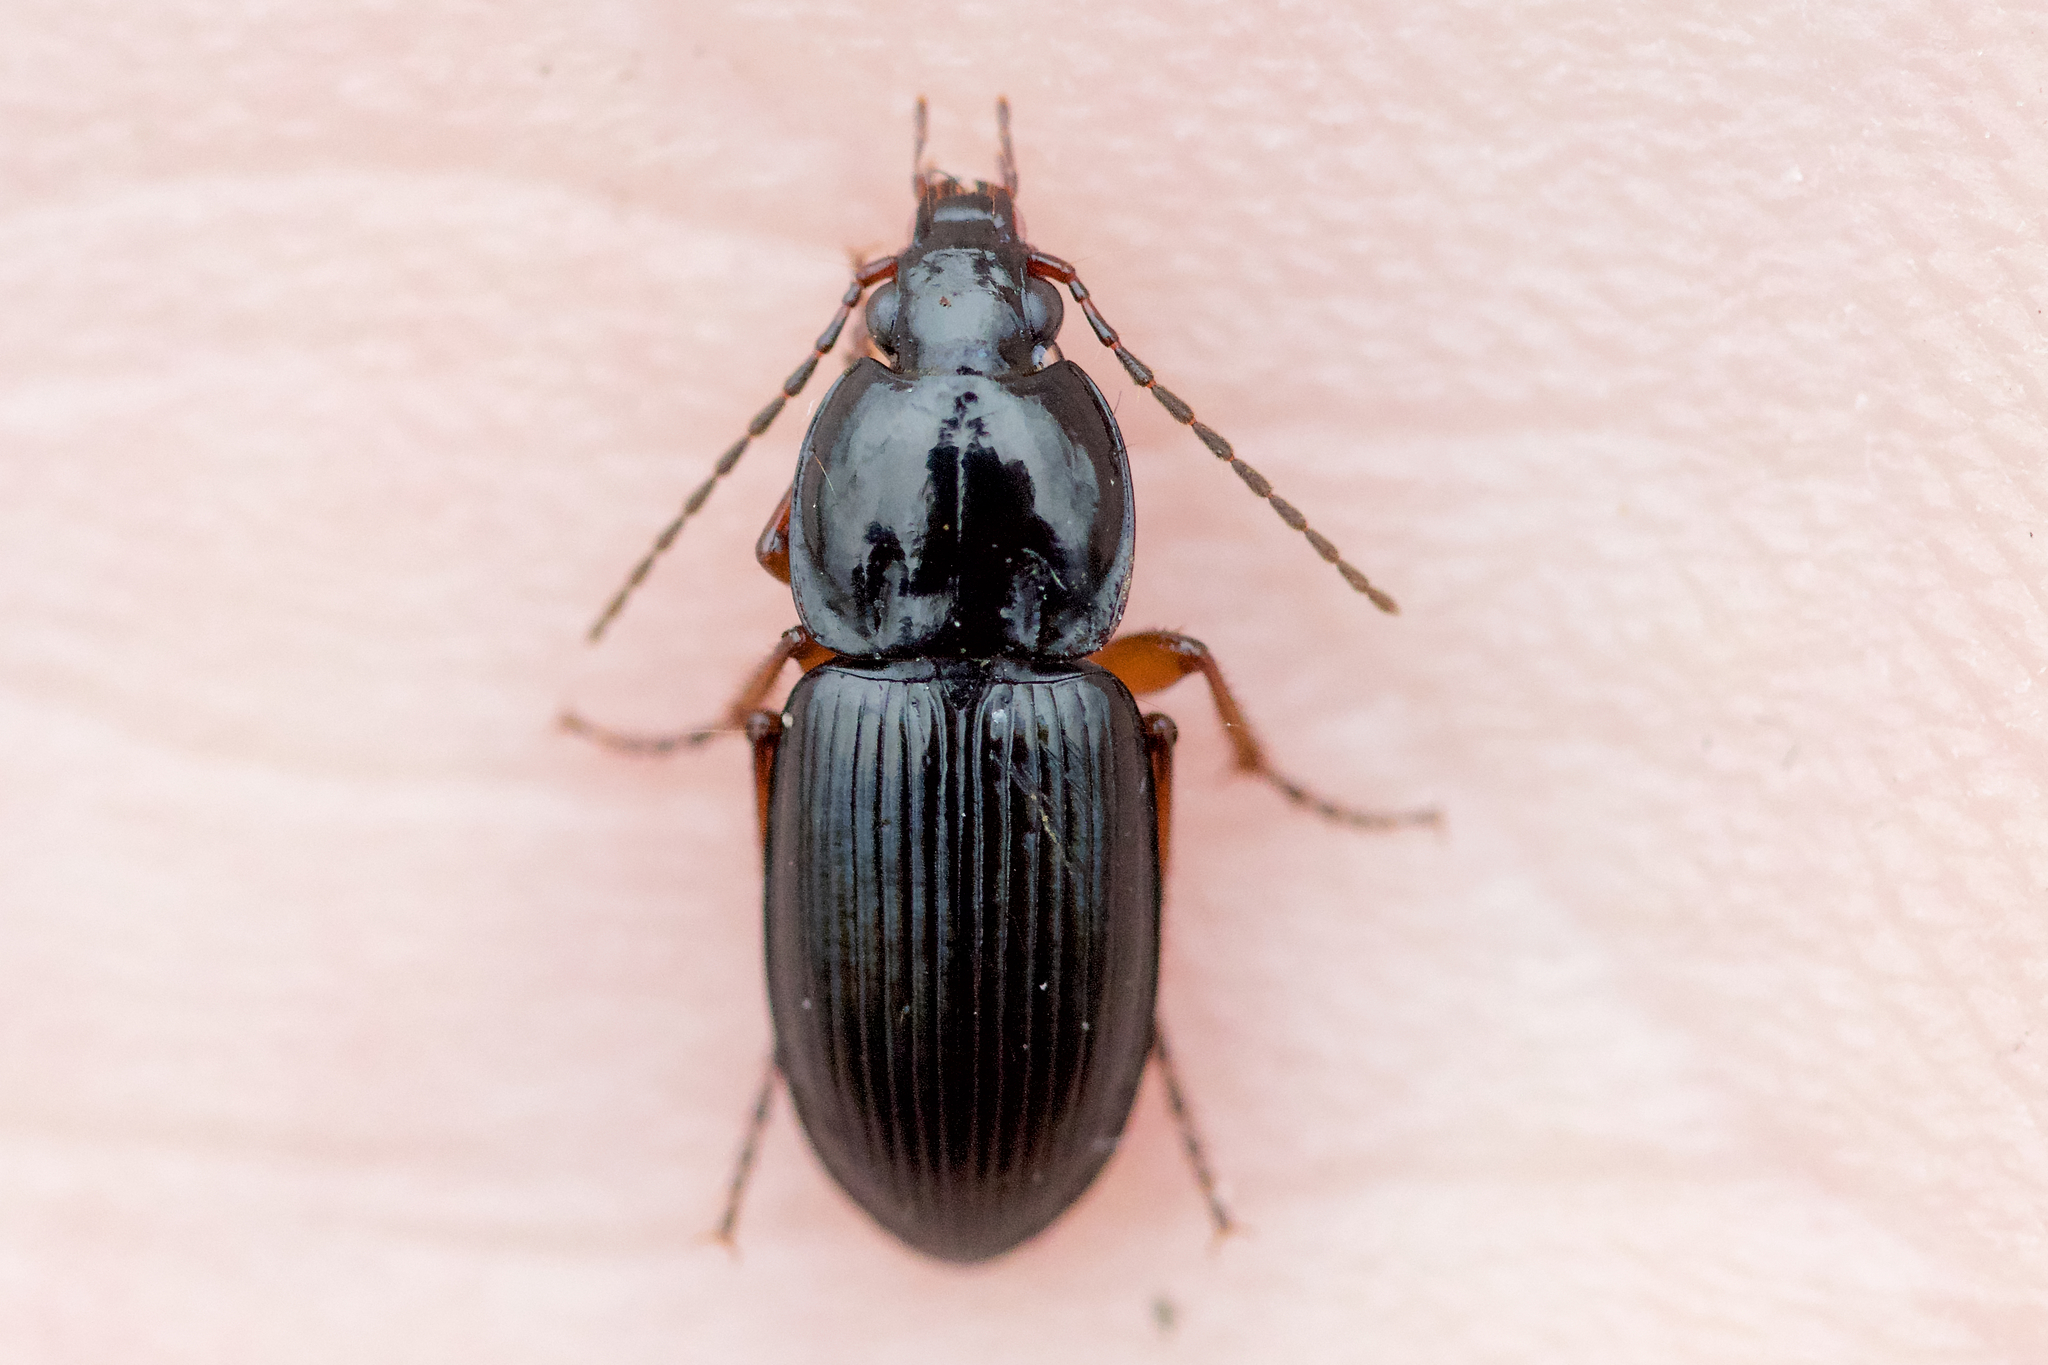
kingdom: Animalia
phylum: Arthropoda
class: Insecta
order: Coleoptera
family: Carabidae
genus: Pterostichus
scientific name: Pterostichus commutabilis
